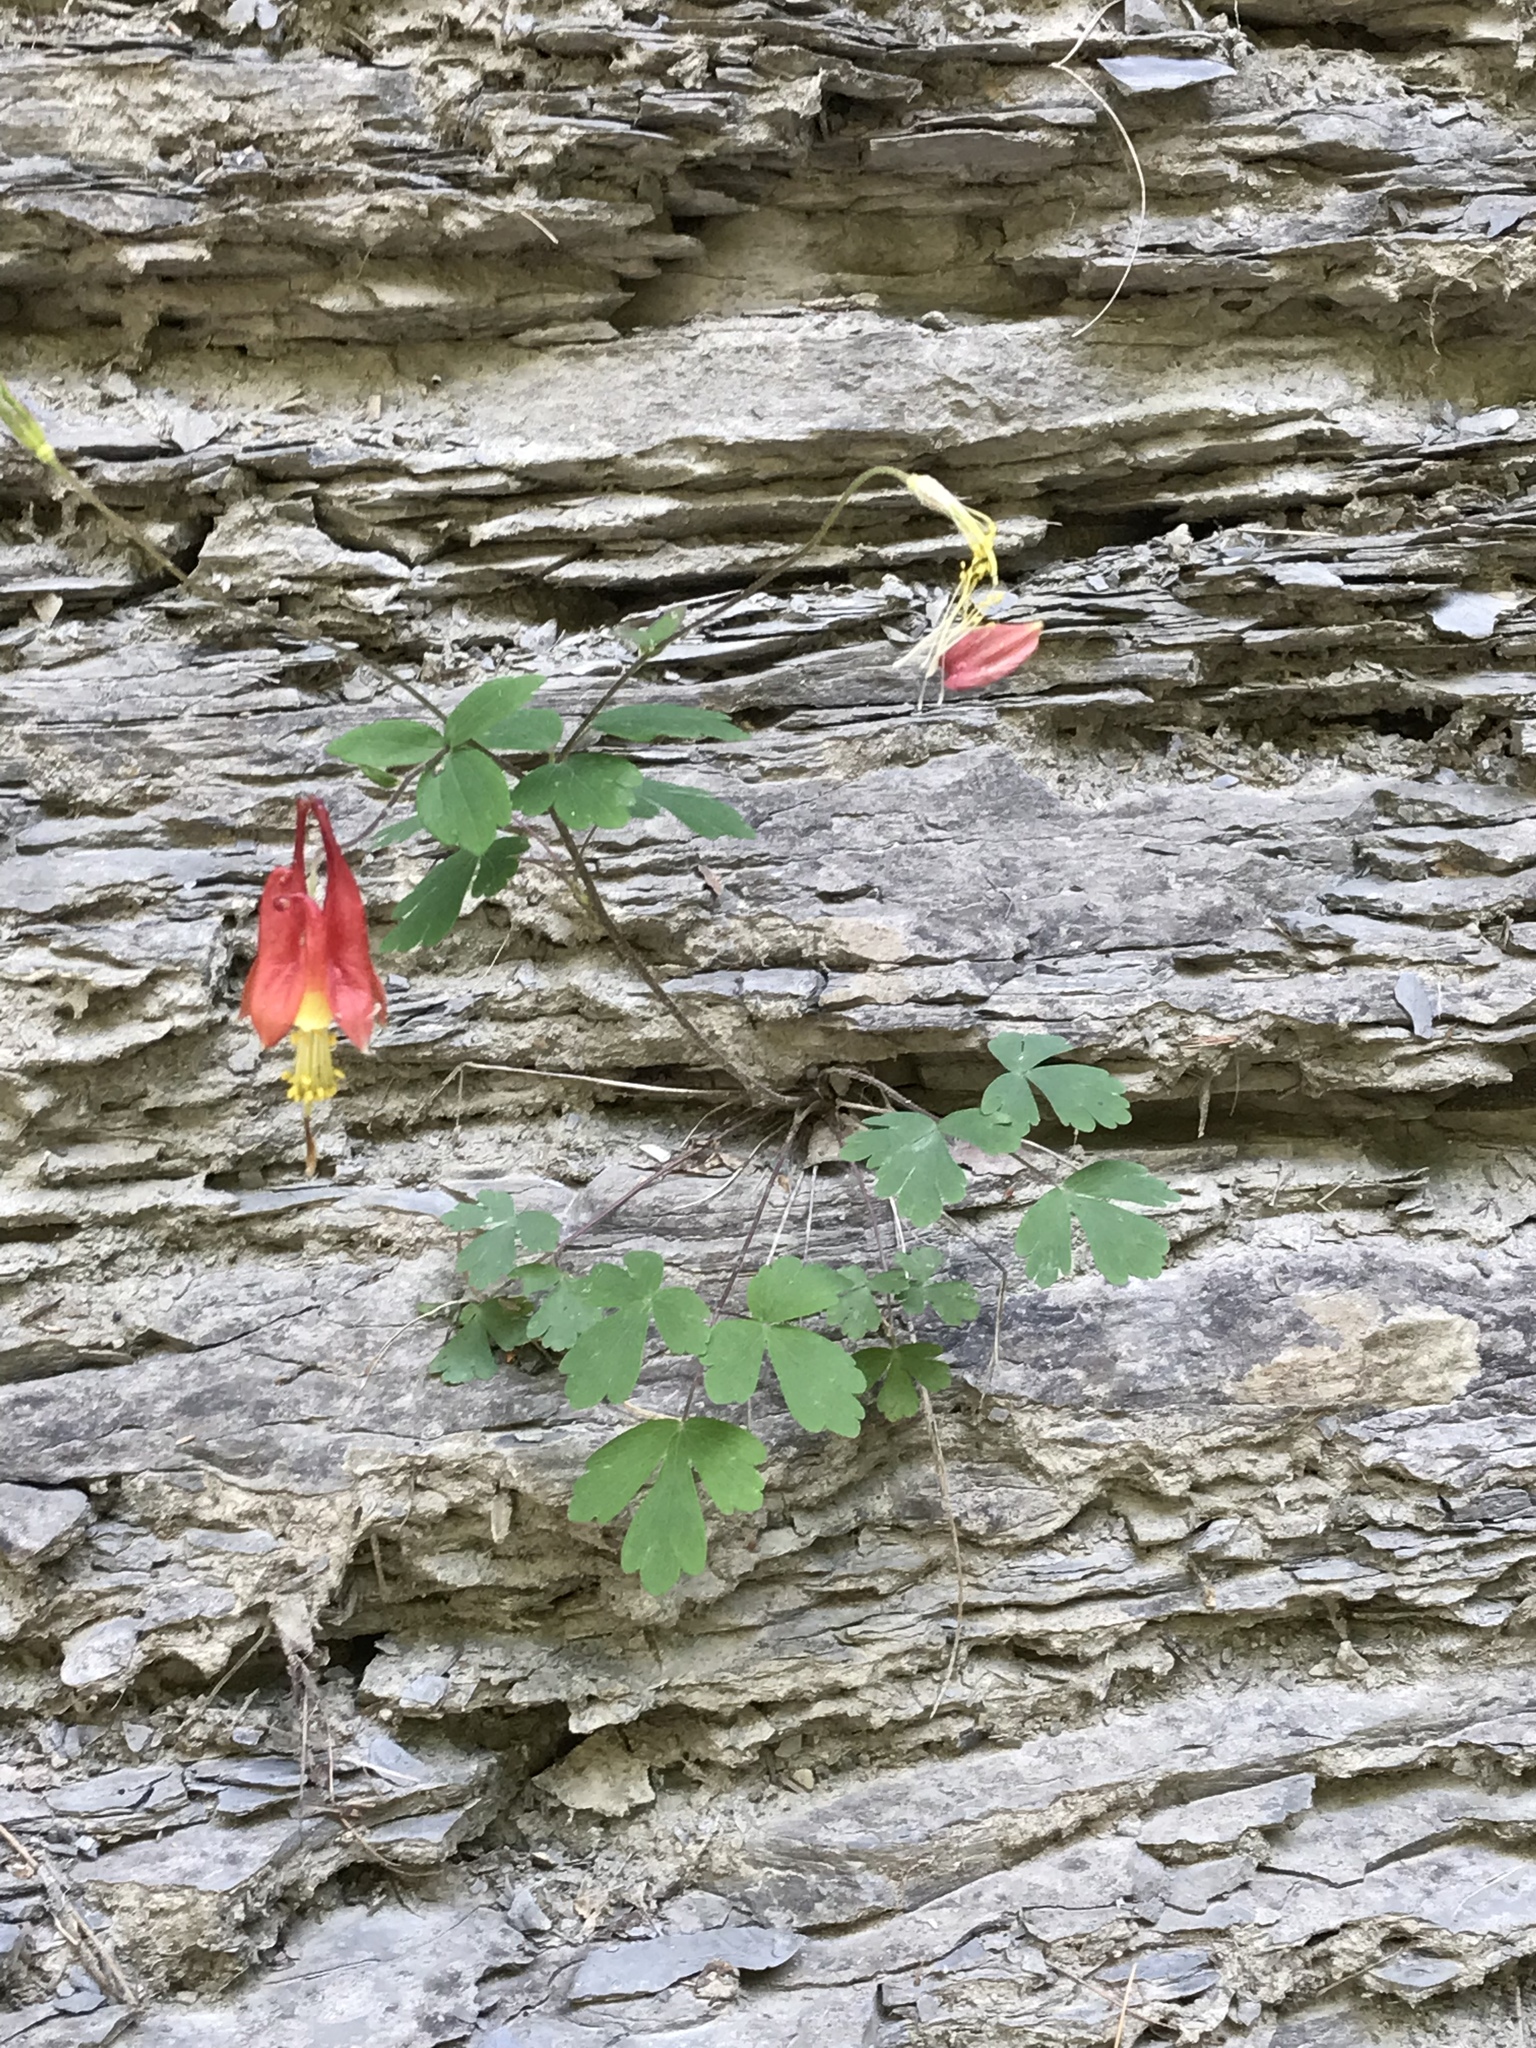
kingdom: Plantae
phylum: Tracheophyta
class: Magnoliopsida
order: Ranunculales
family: Ranunculaceae
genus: Aquilegia
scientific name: Aquilegia canadensis
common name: American columbine
